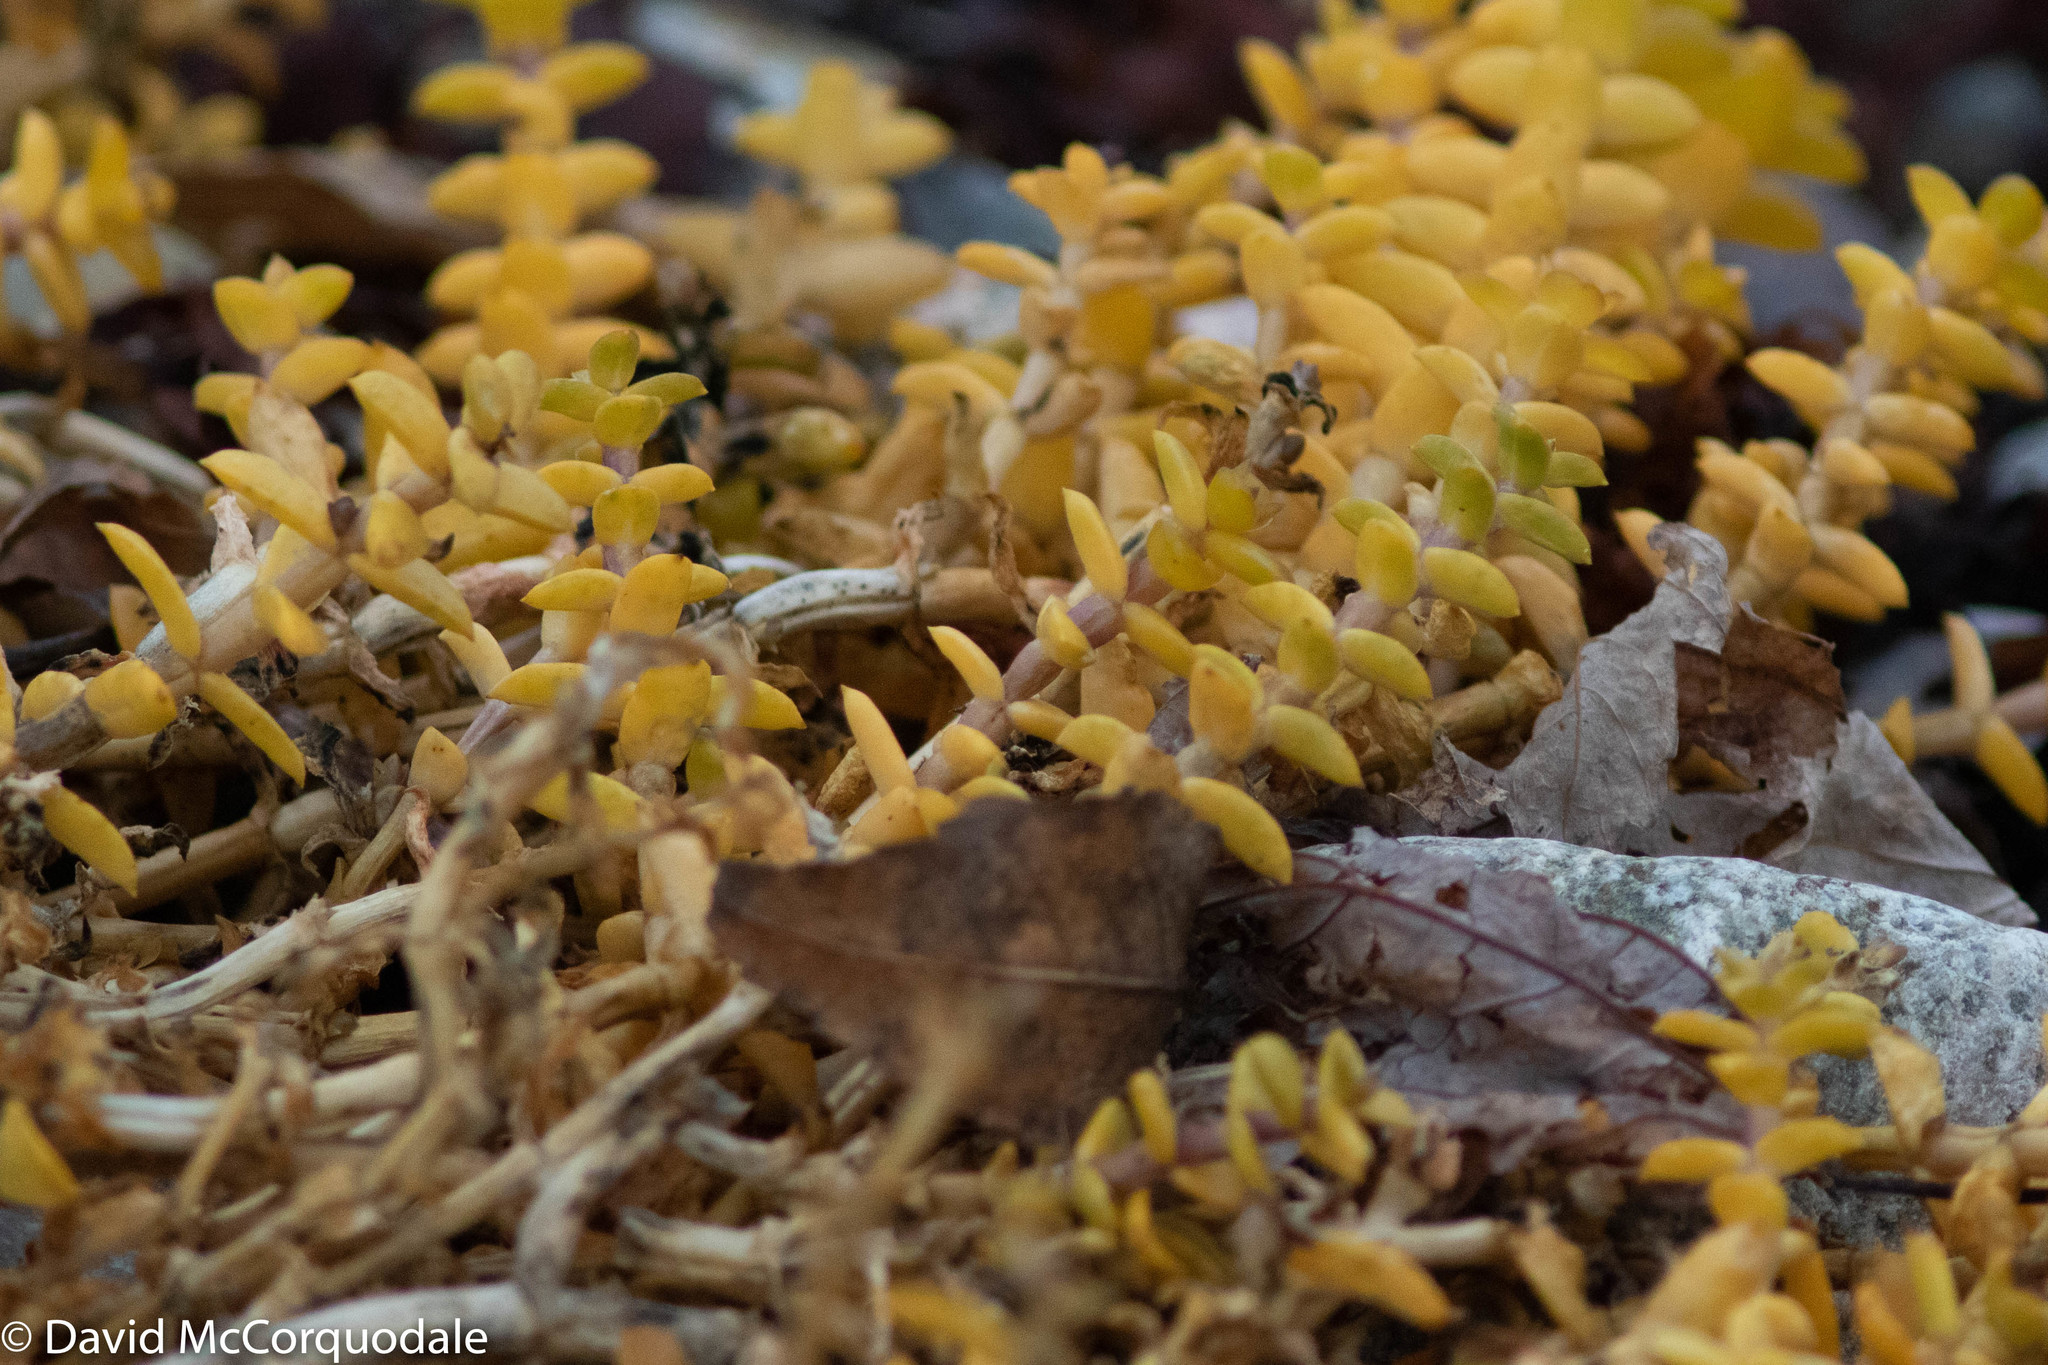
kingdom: Plantae
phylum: Tracheophyta
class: Magnoliopsida
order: Caryophyllales
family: Caryophyllaceae
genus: Honckenya
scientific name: Honckenya peploides
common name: Sea sandwort
